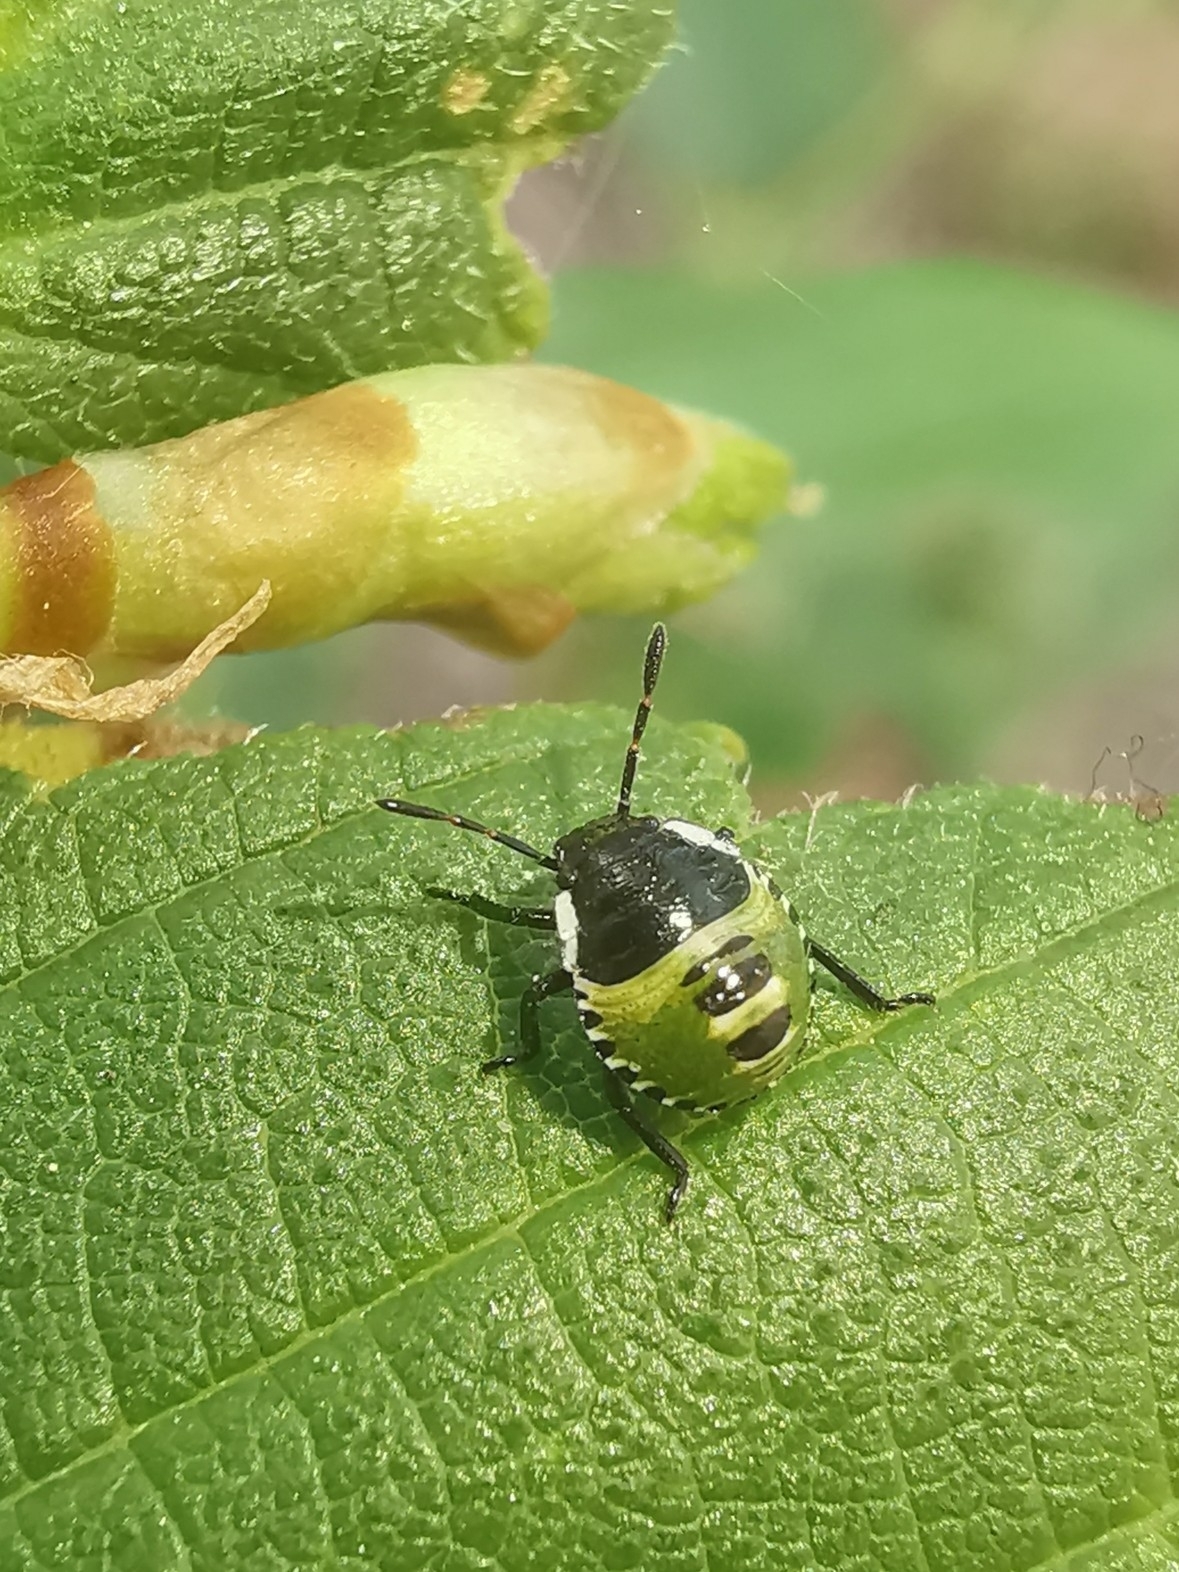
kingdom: Animalia
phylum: Arthropoda
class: Insecta
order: Hemiptera
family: Pentatomidae
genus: Palomena
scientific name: Palomena prasina
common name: Green shieldbug
